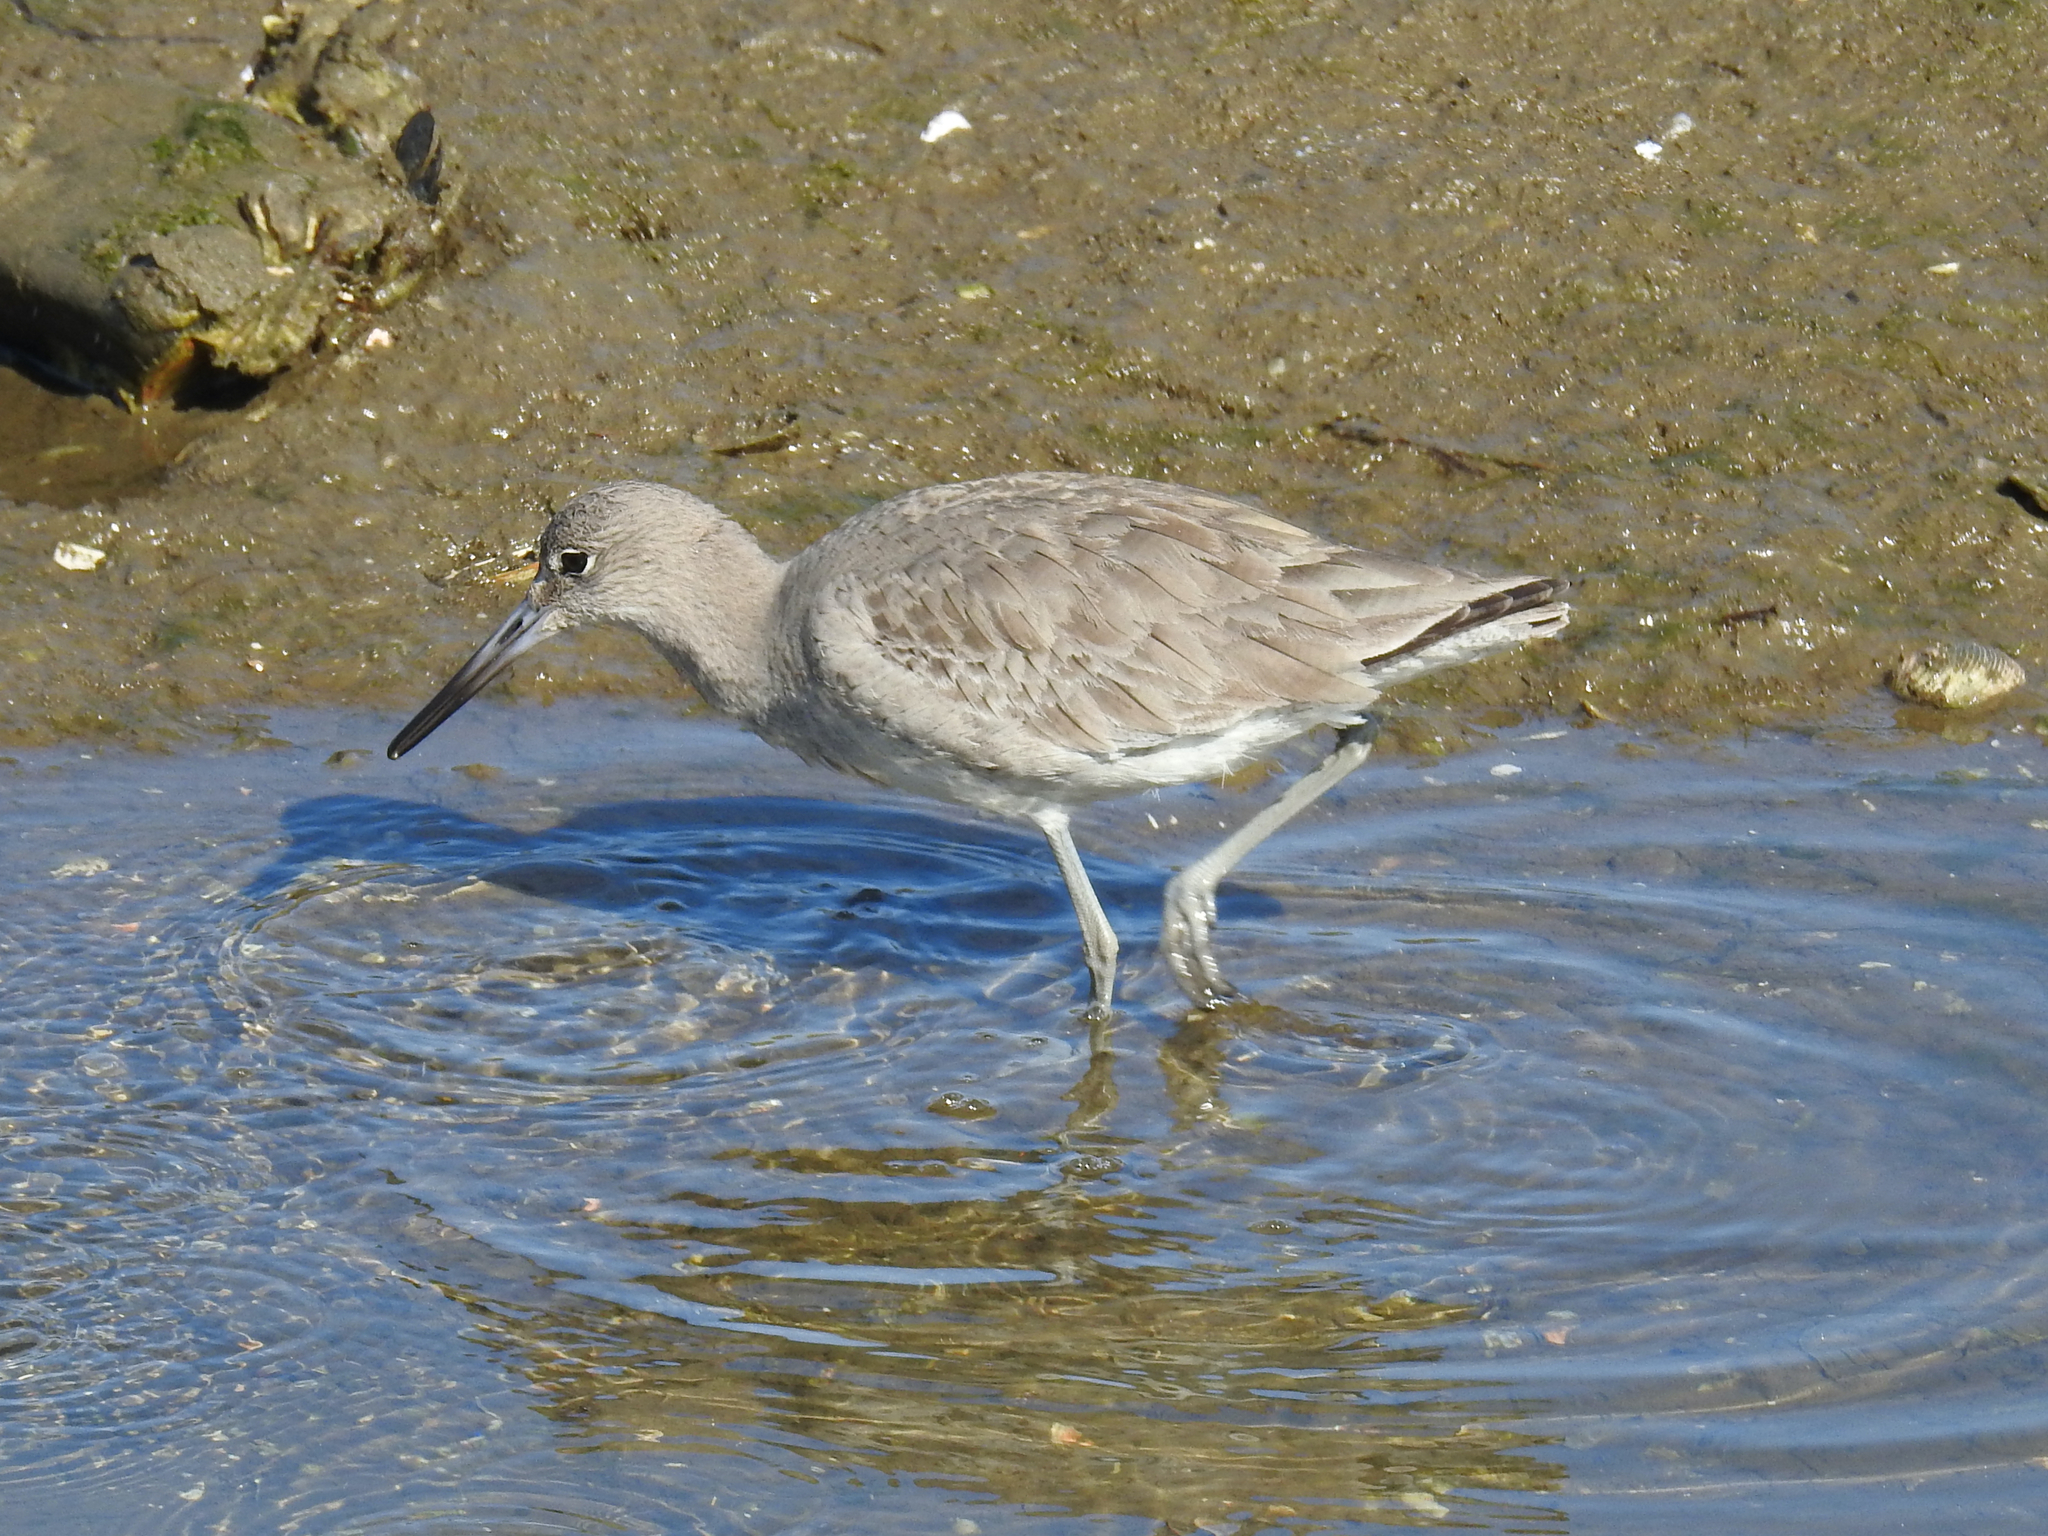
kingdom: Animalia
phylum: Chordata
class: Aves
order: Charadriiformes
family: Scolopacidae
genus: Tringa
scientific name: Tringa semipalmata
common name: Willet
